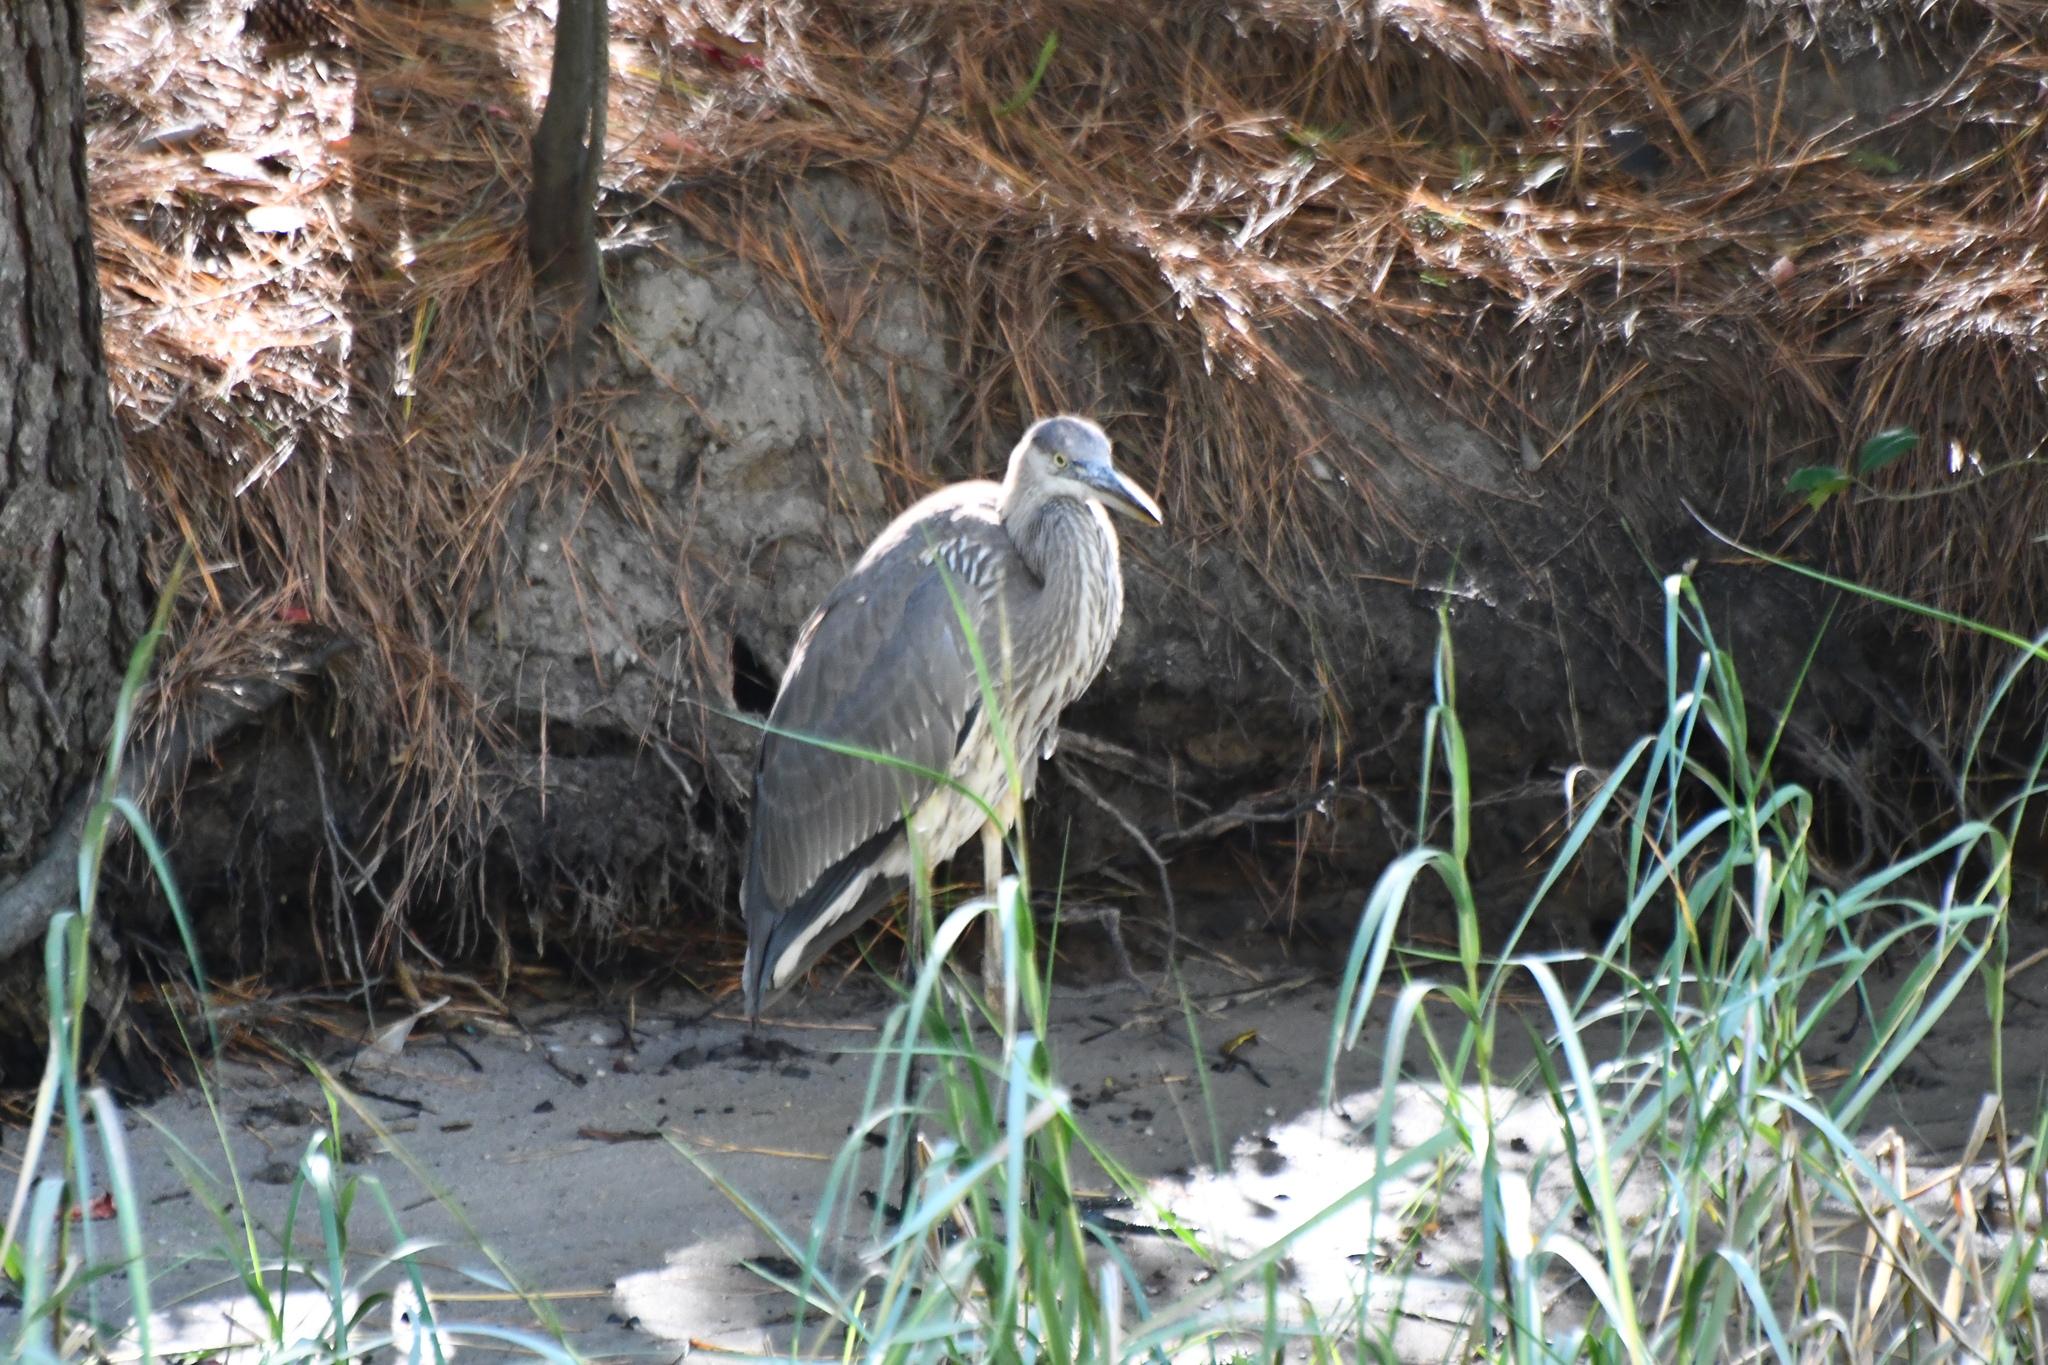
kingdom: Animalia
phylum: Chordata
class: Aves
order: Pelecaniformes
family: Ardeidae
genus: Ardea
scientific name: Ardea herodias
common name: Great blue heron
